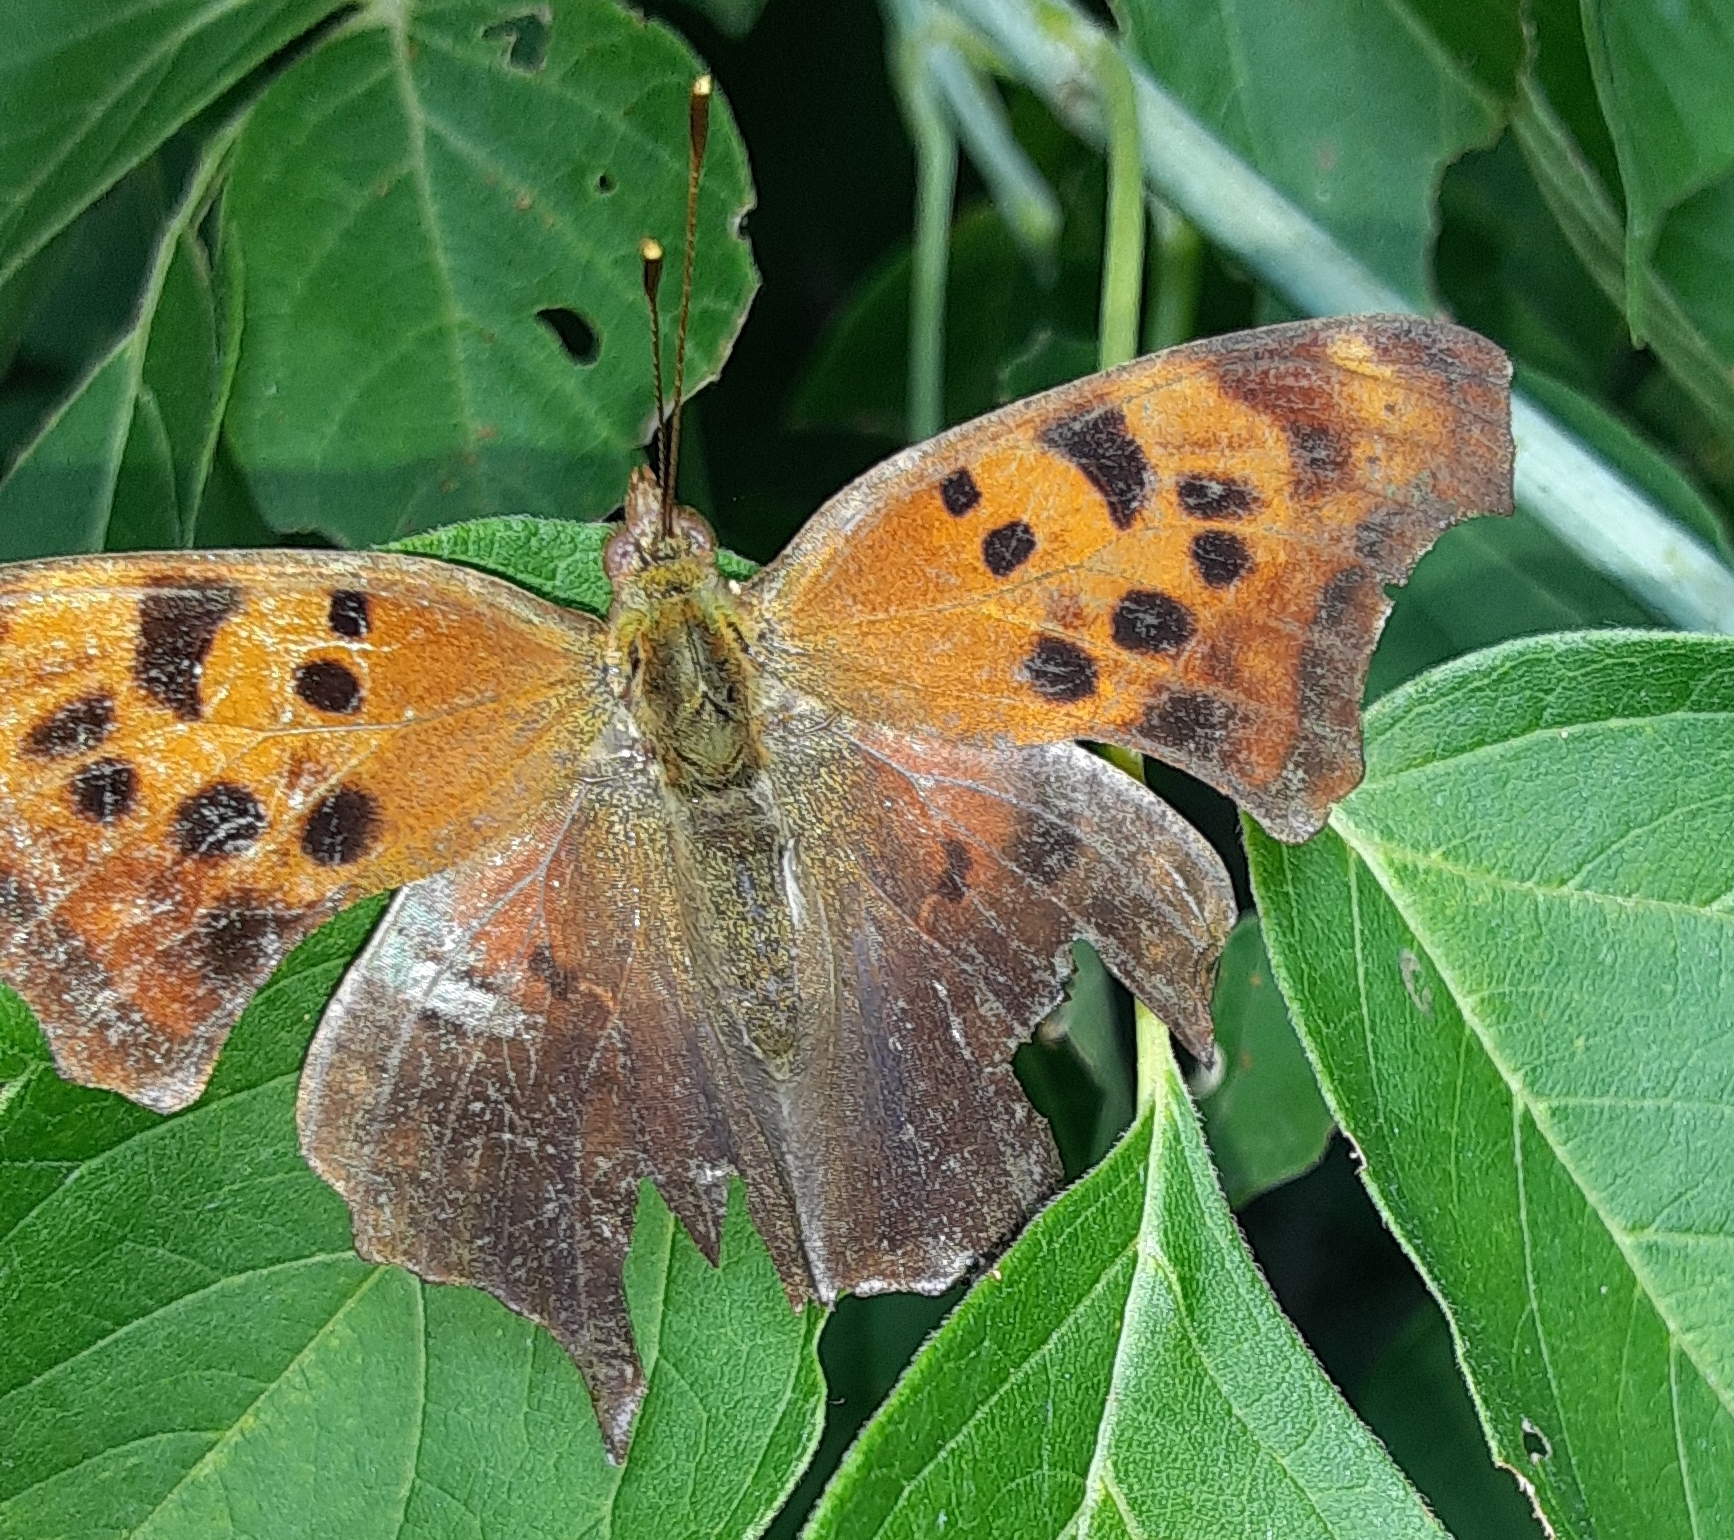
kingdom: Animalia
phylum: Arthropoda
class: Insecta
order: Lepidoptera
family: Nymphalidae
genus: Polygonia
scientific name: Polygonia interrogationis
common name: Question mark
